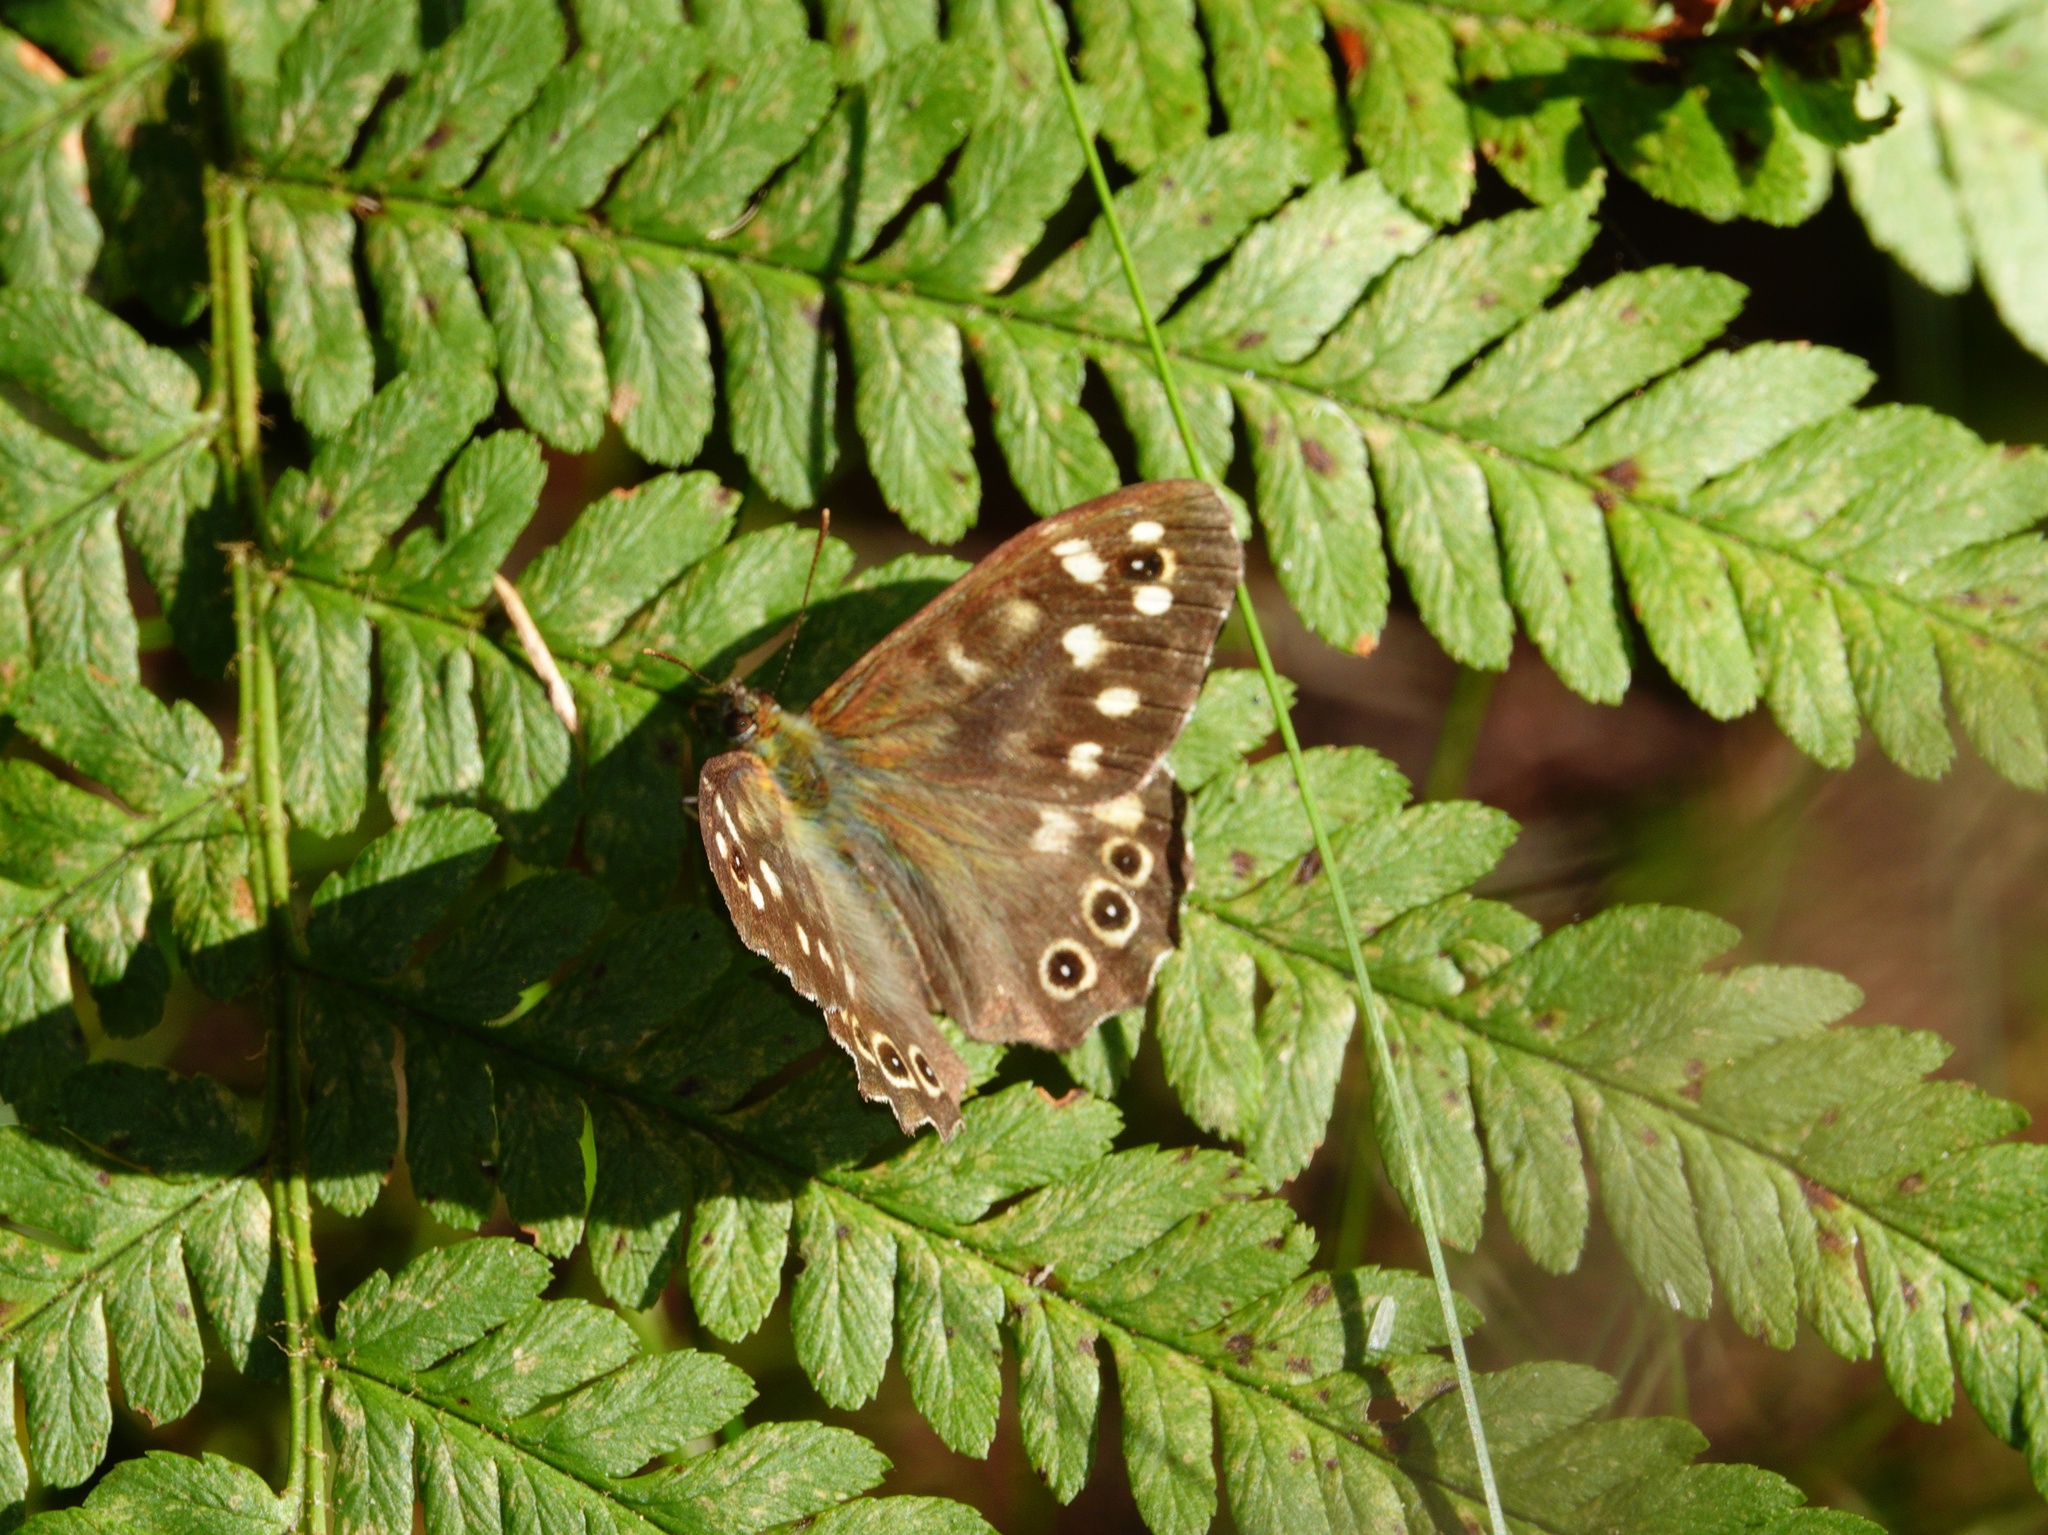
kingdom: Animalia
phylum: Arthropoda
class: Insecta
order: Lepidoptera
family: Nymphalidae
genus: Pararge
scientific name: Pararge aegeria
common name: Speckled wood
